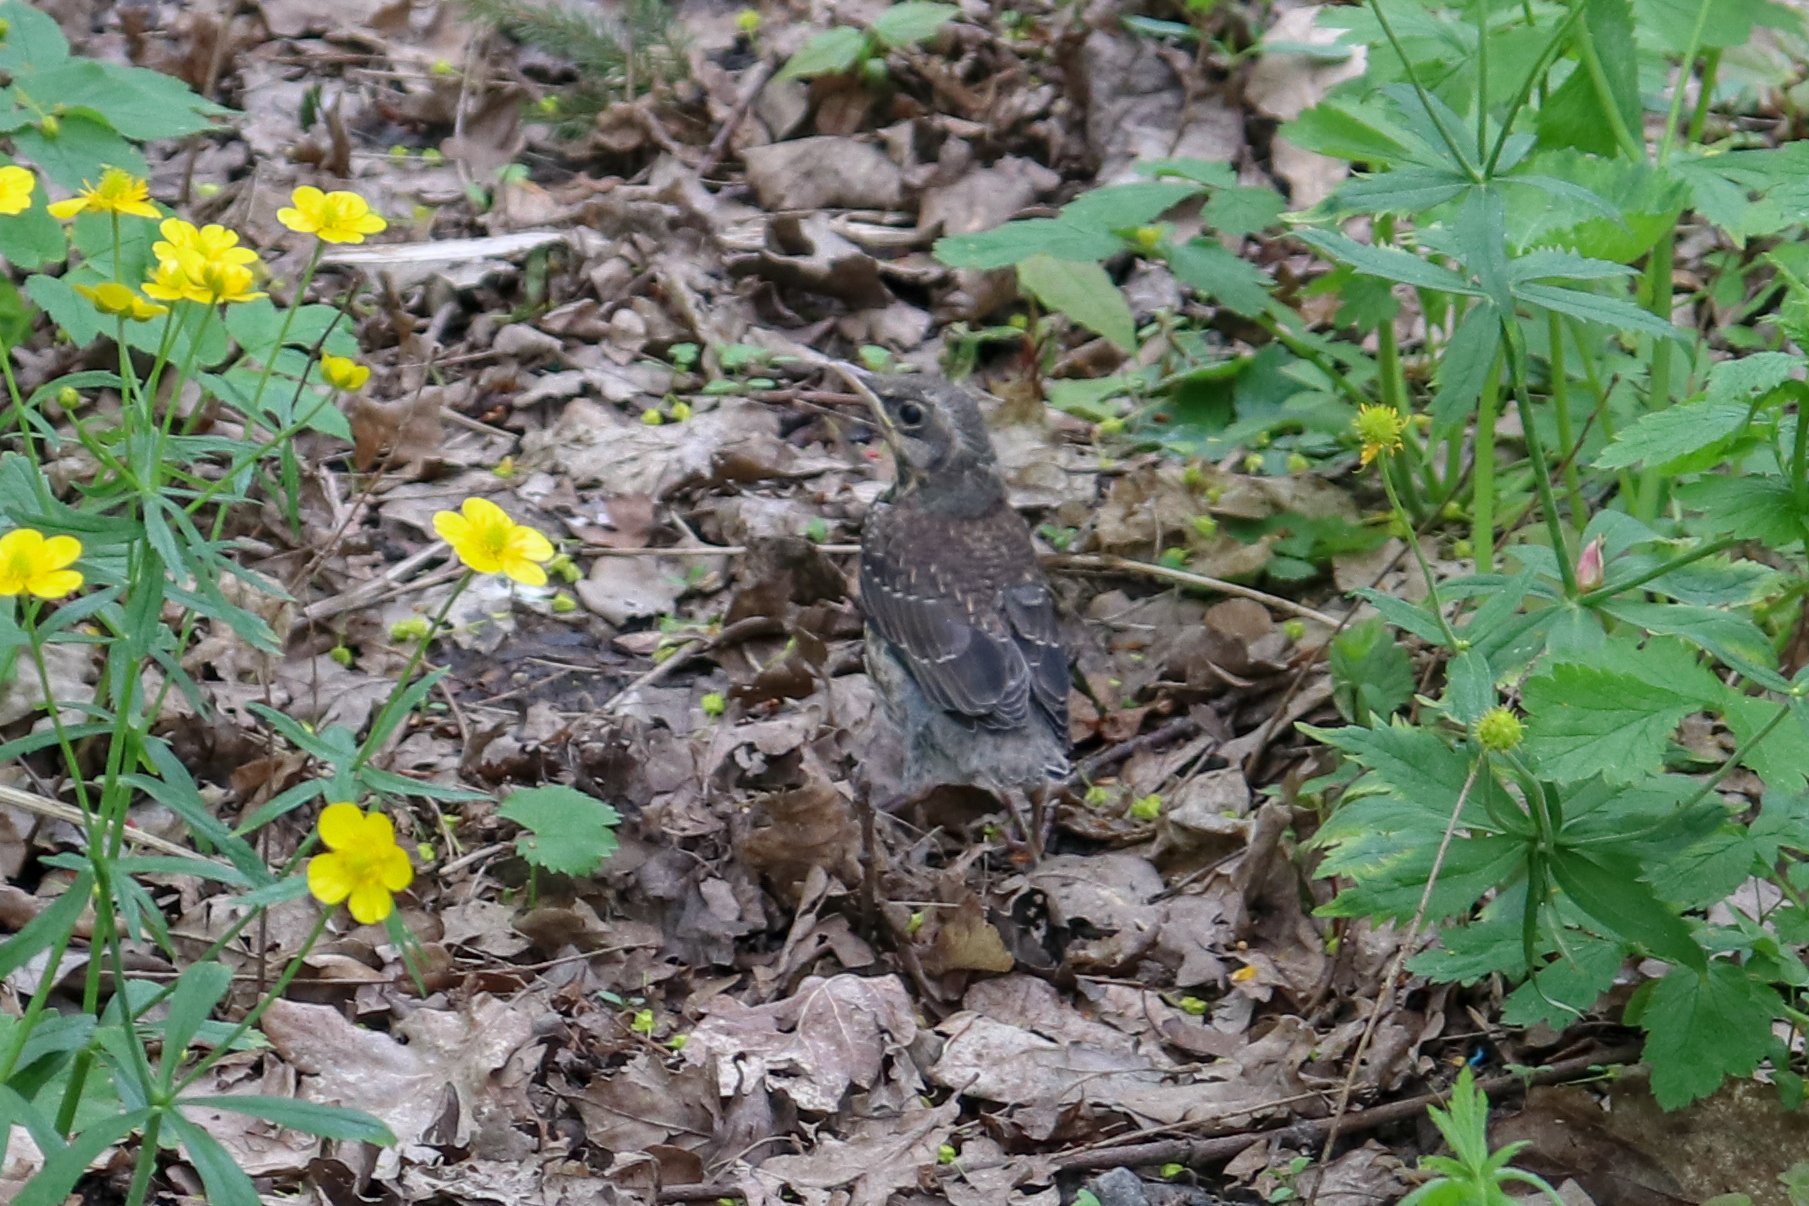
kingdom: Animalia
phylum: Chordata
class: Aves
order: Passeriformes
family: Turdidae
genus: Turdus
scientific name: Turdus pilaris
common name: Fieldfare
